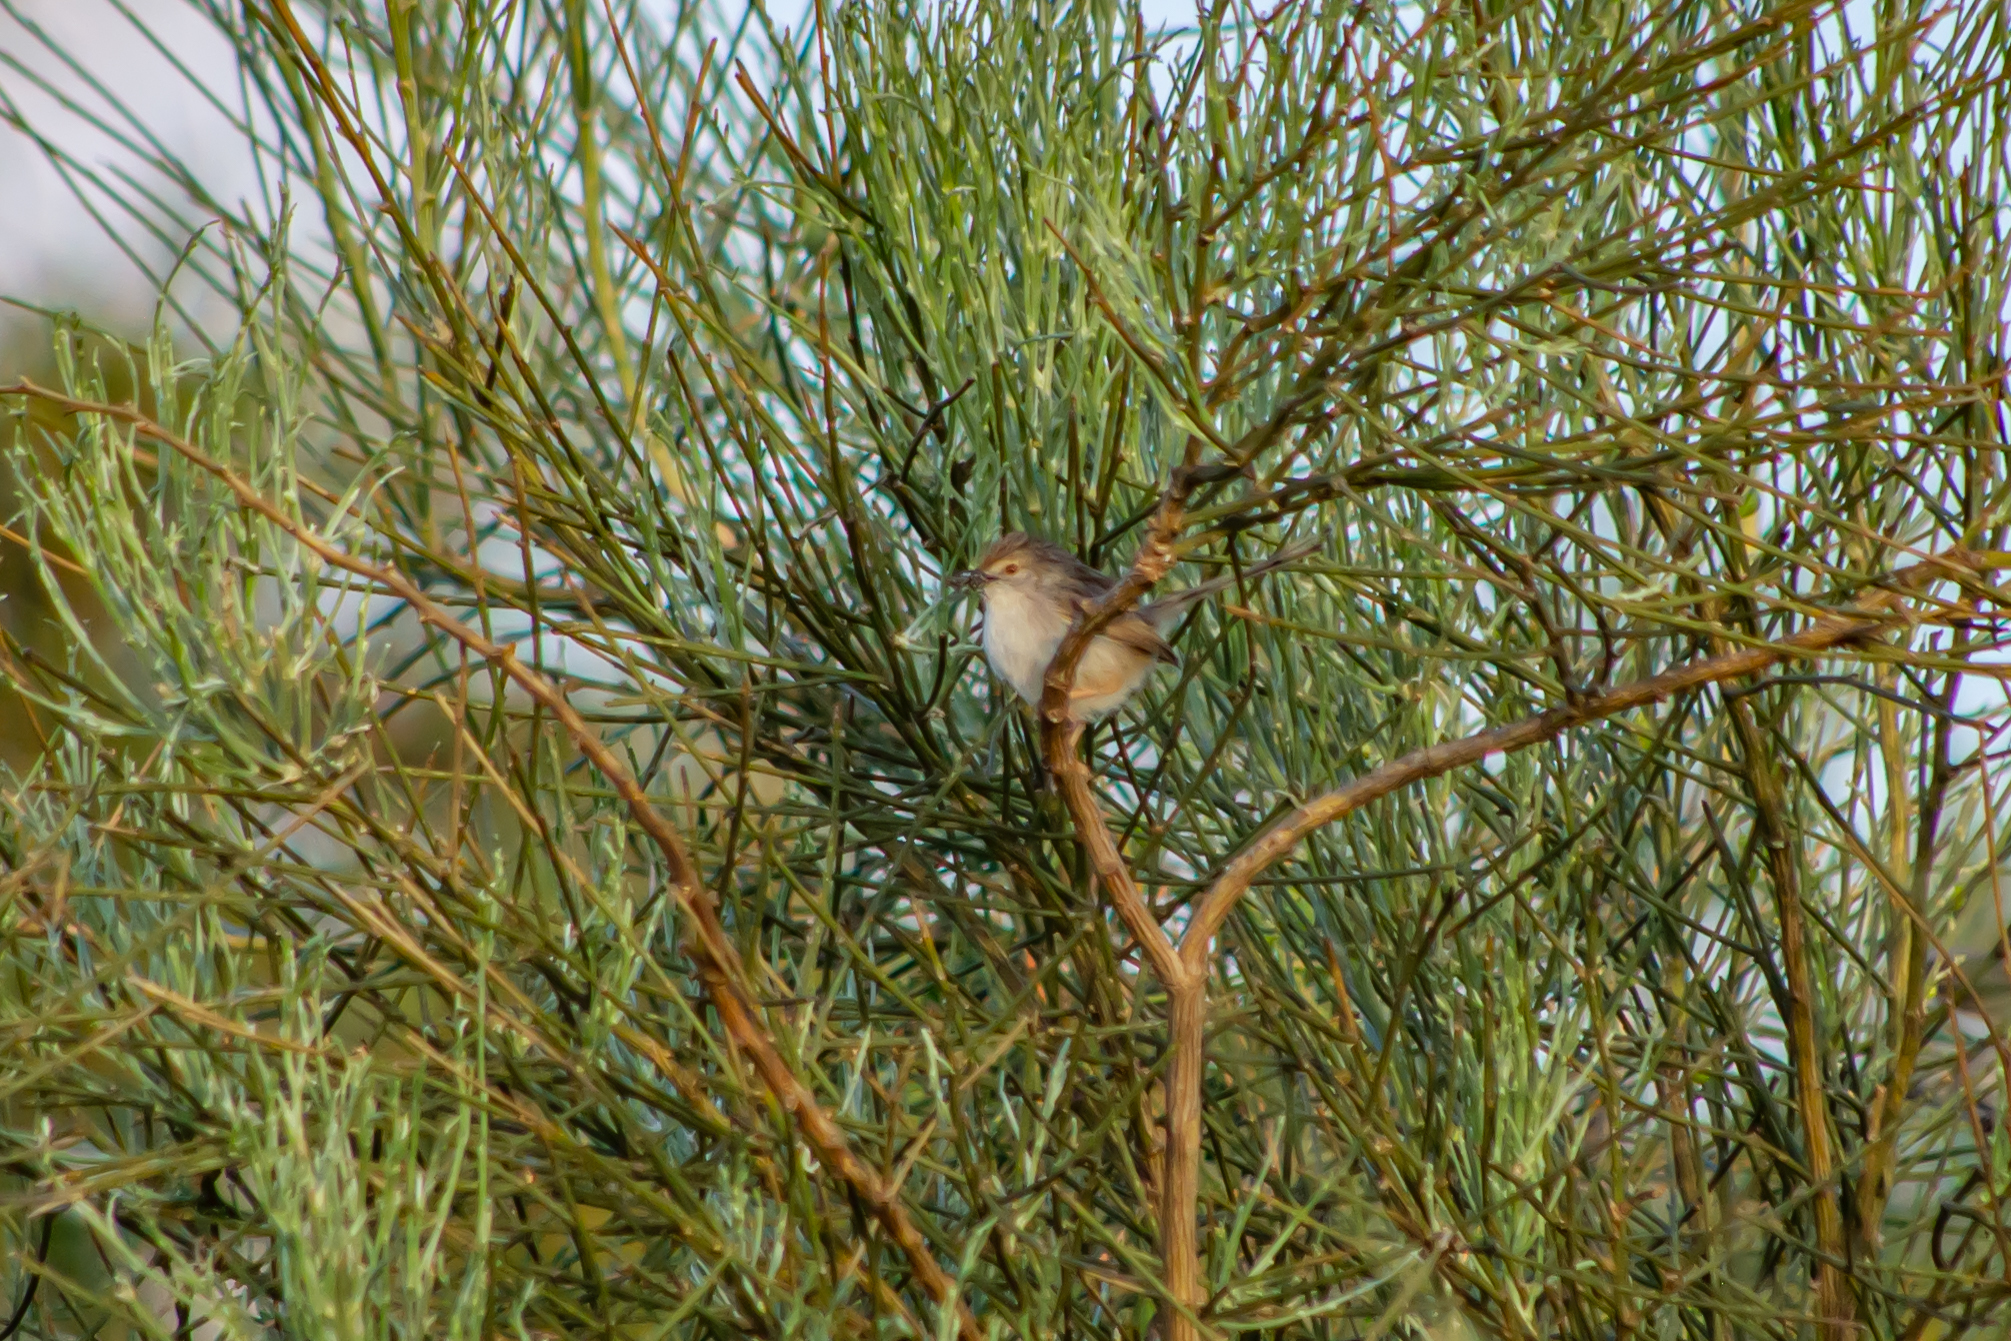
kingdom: Animalia
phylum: Chordata
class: Aves
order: Passeriformes
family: Cisticolidae
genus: Prinia
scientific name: Prinia gracilis
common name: Graceful prinia
